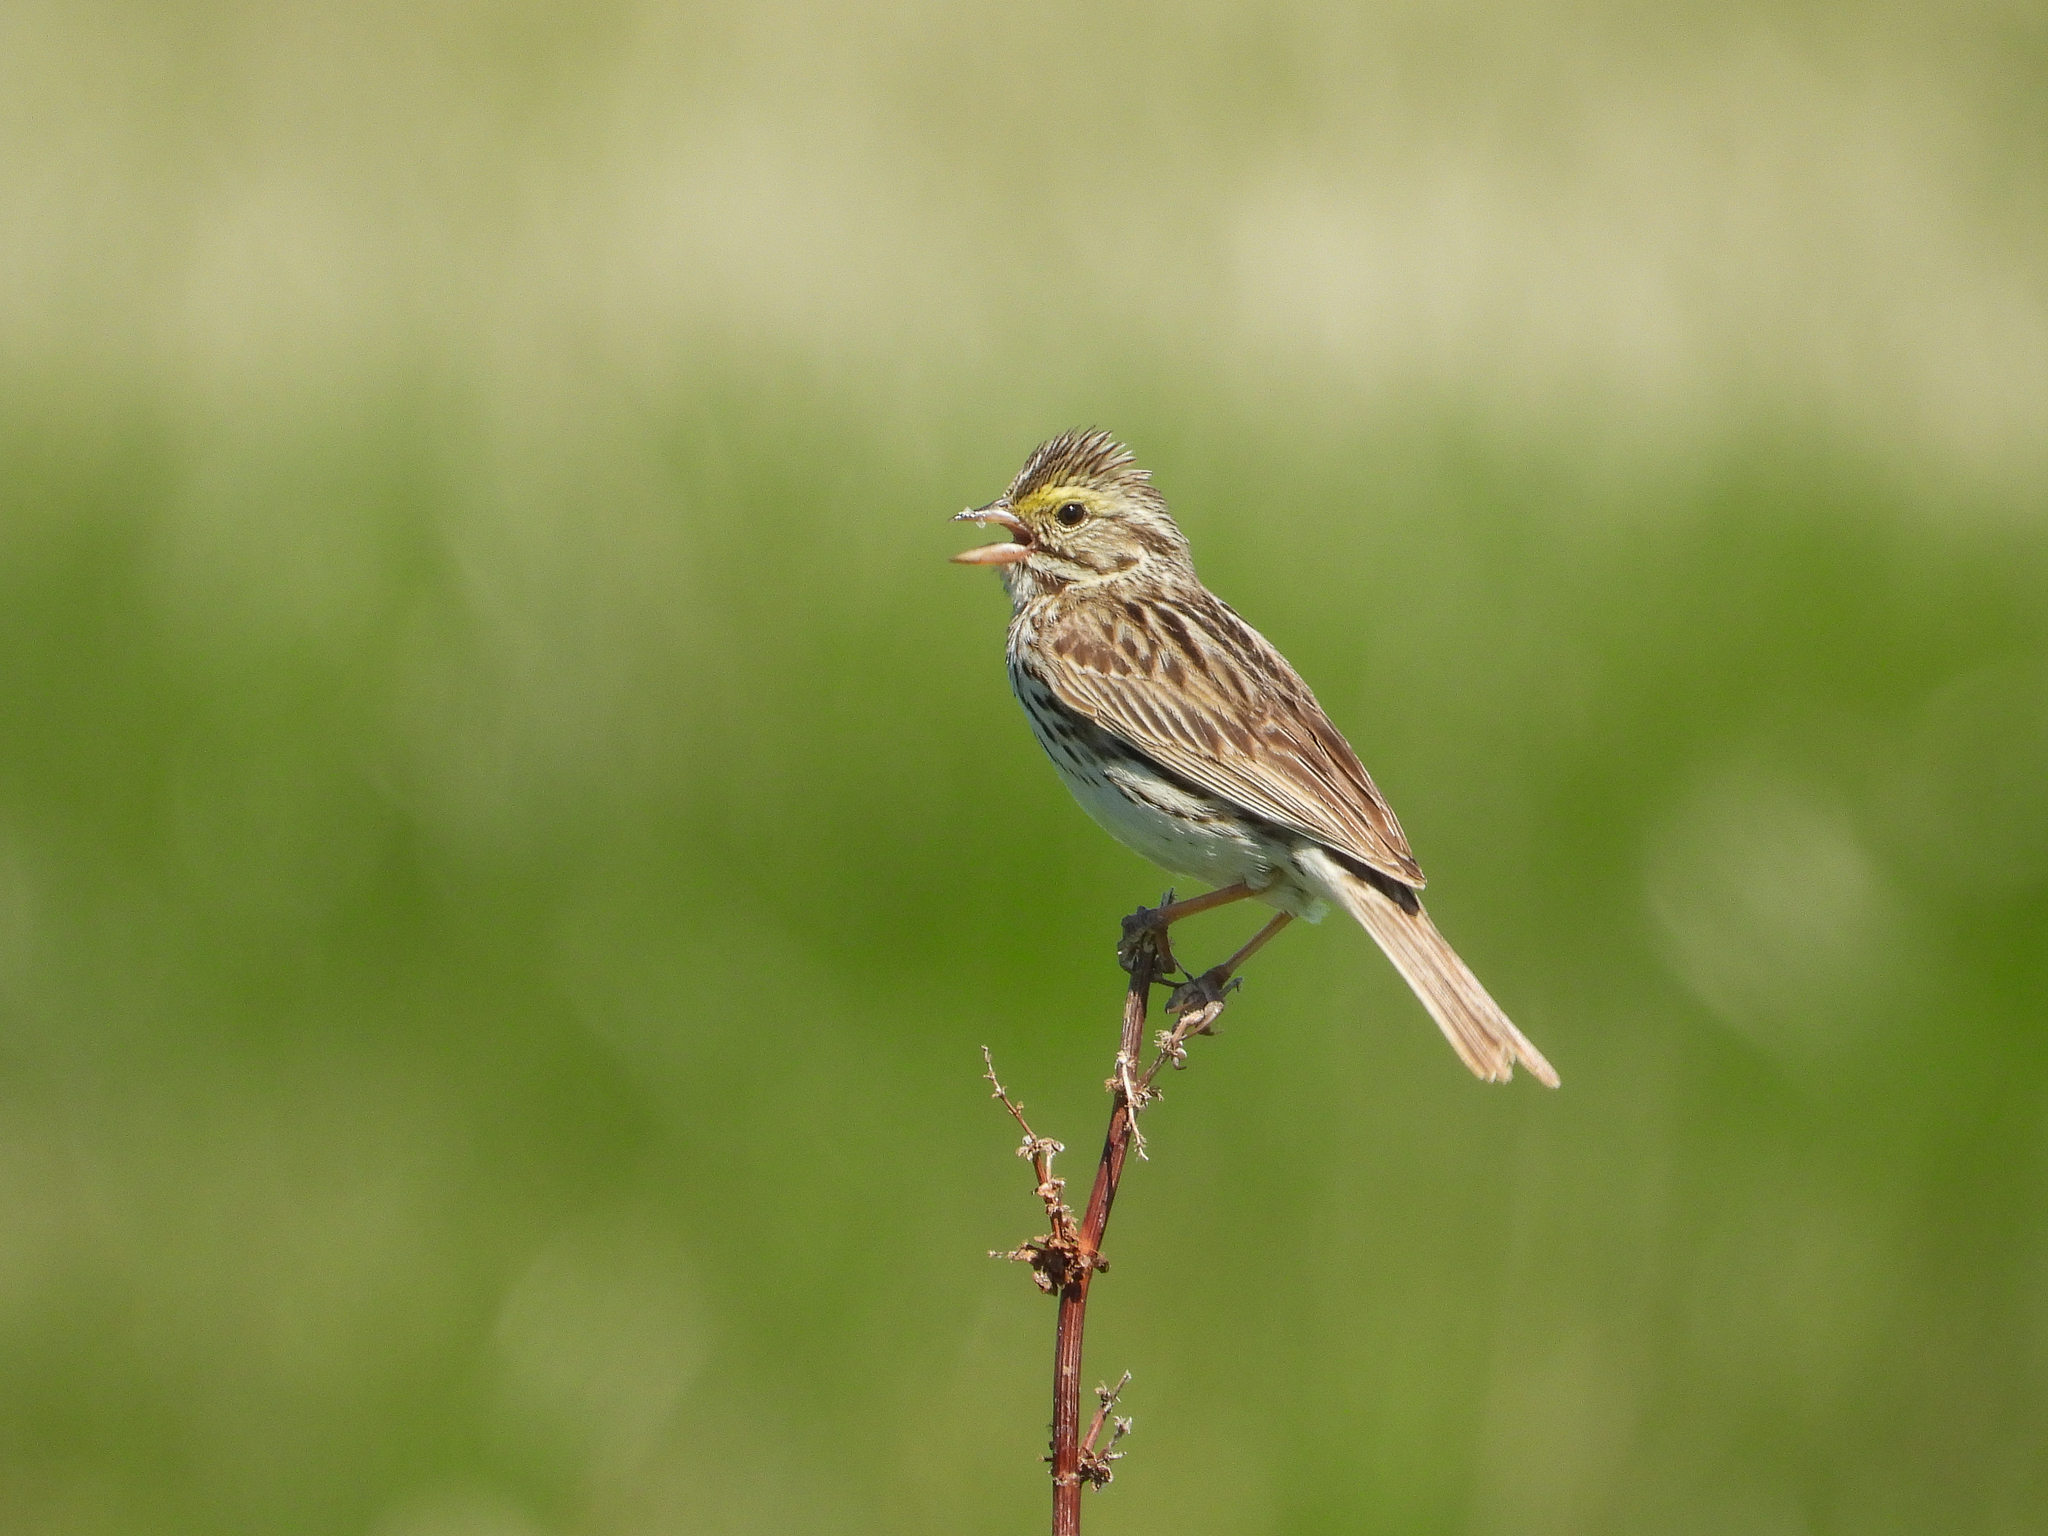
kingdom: Animalia
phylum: Chordata
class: Aves
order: Passeriformes
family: Passerellidae
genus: Passerculus
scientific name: Passerculus sandwichensis
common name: Savannah sparrow
